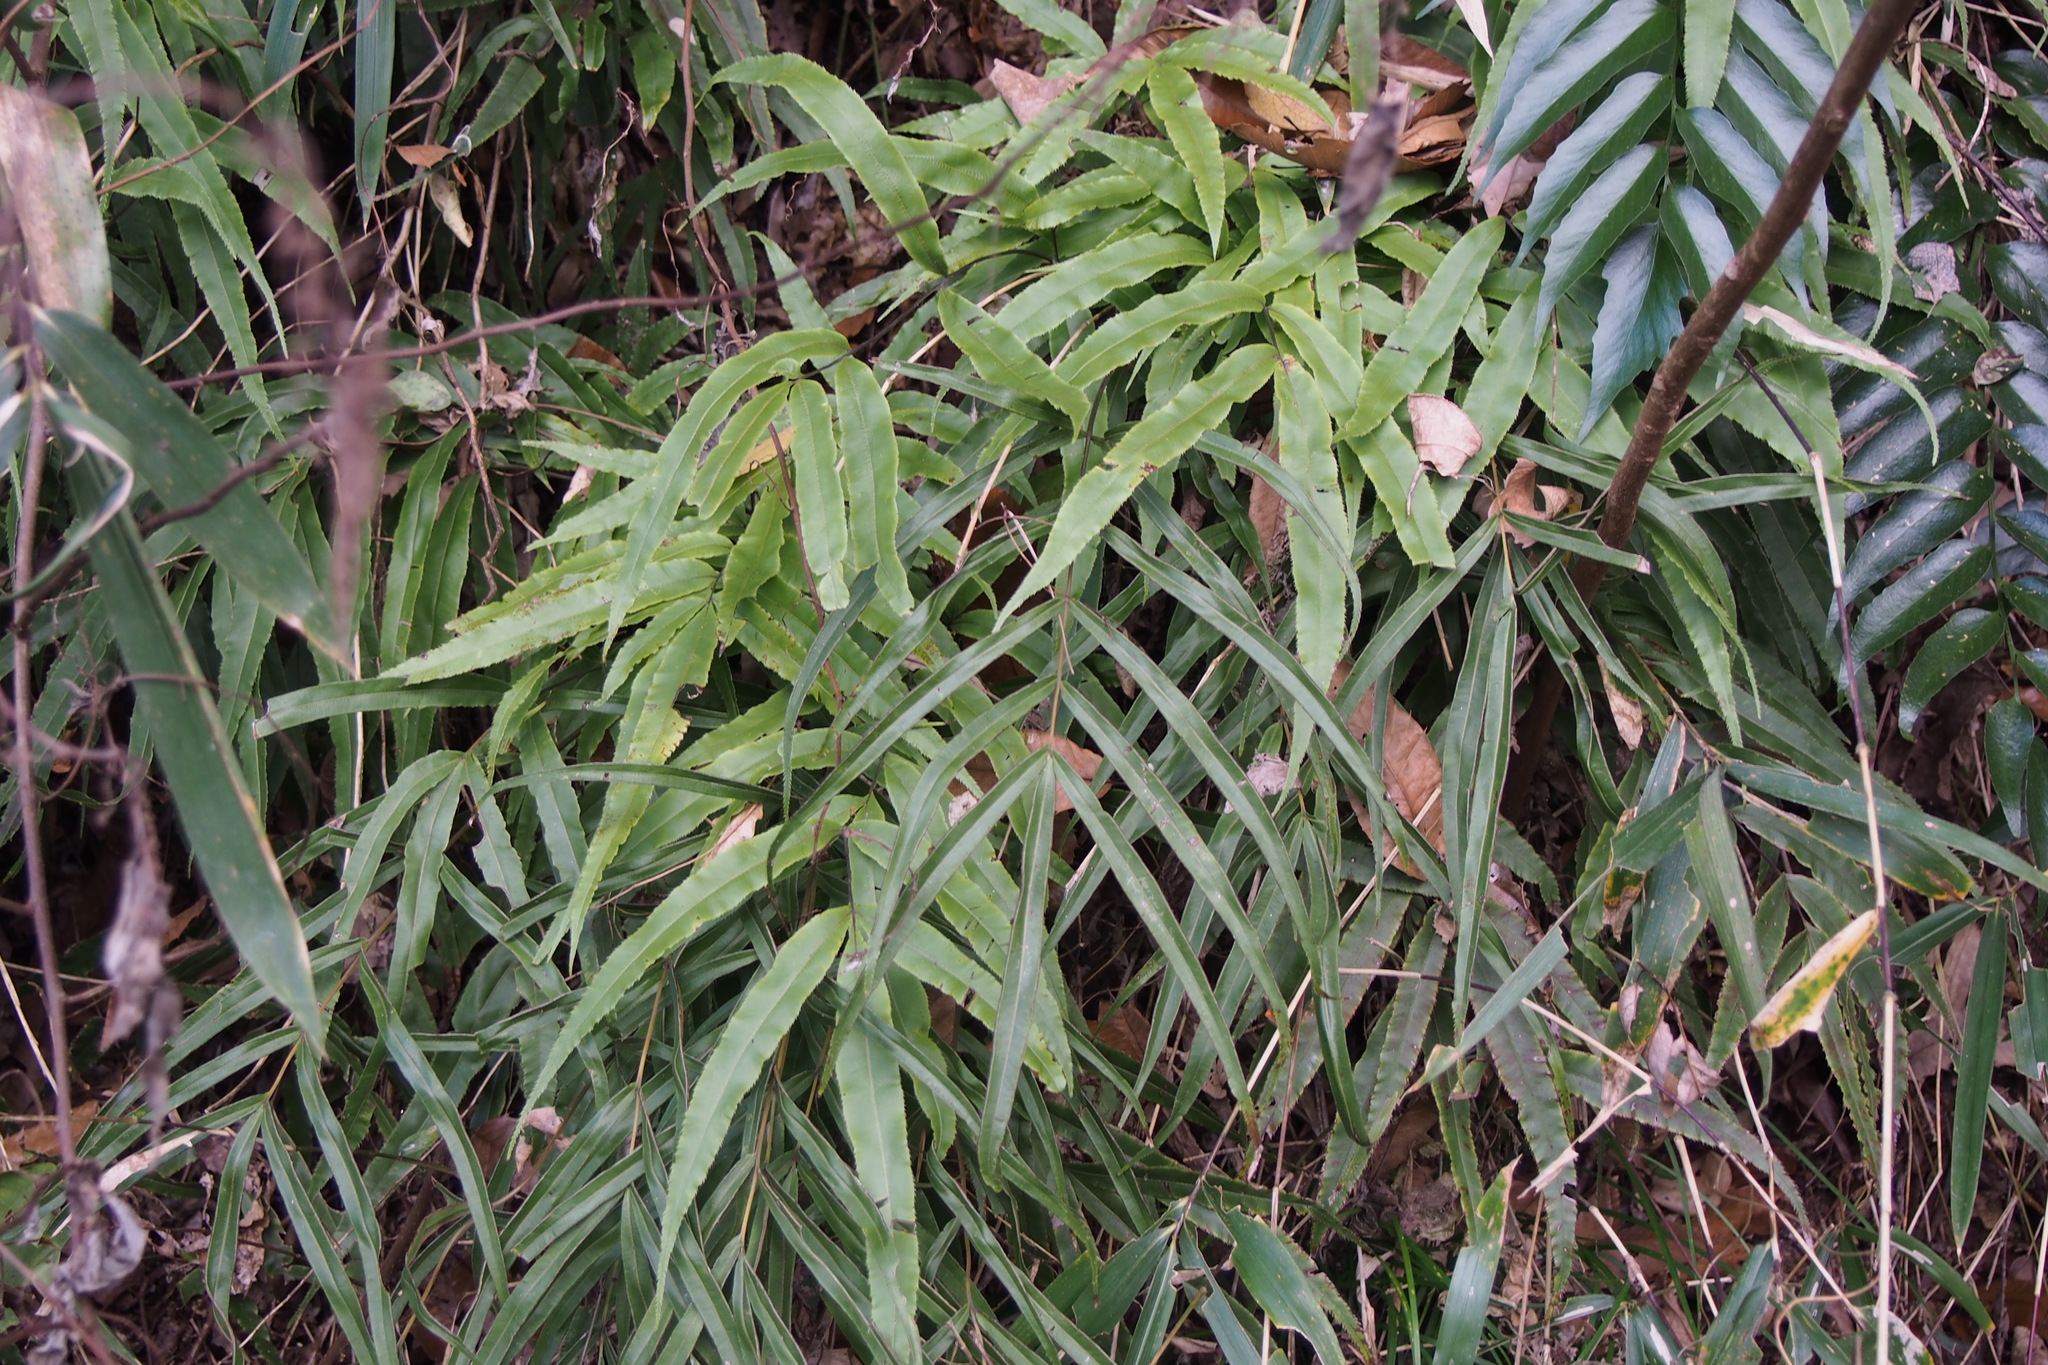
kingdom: Plantae
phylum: Tracheophyta
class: Polypodiopsida
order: Polypodiales
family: Pteridaceae
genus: Pteris
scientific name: Pteris cretica
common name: Ribbon fern
